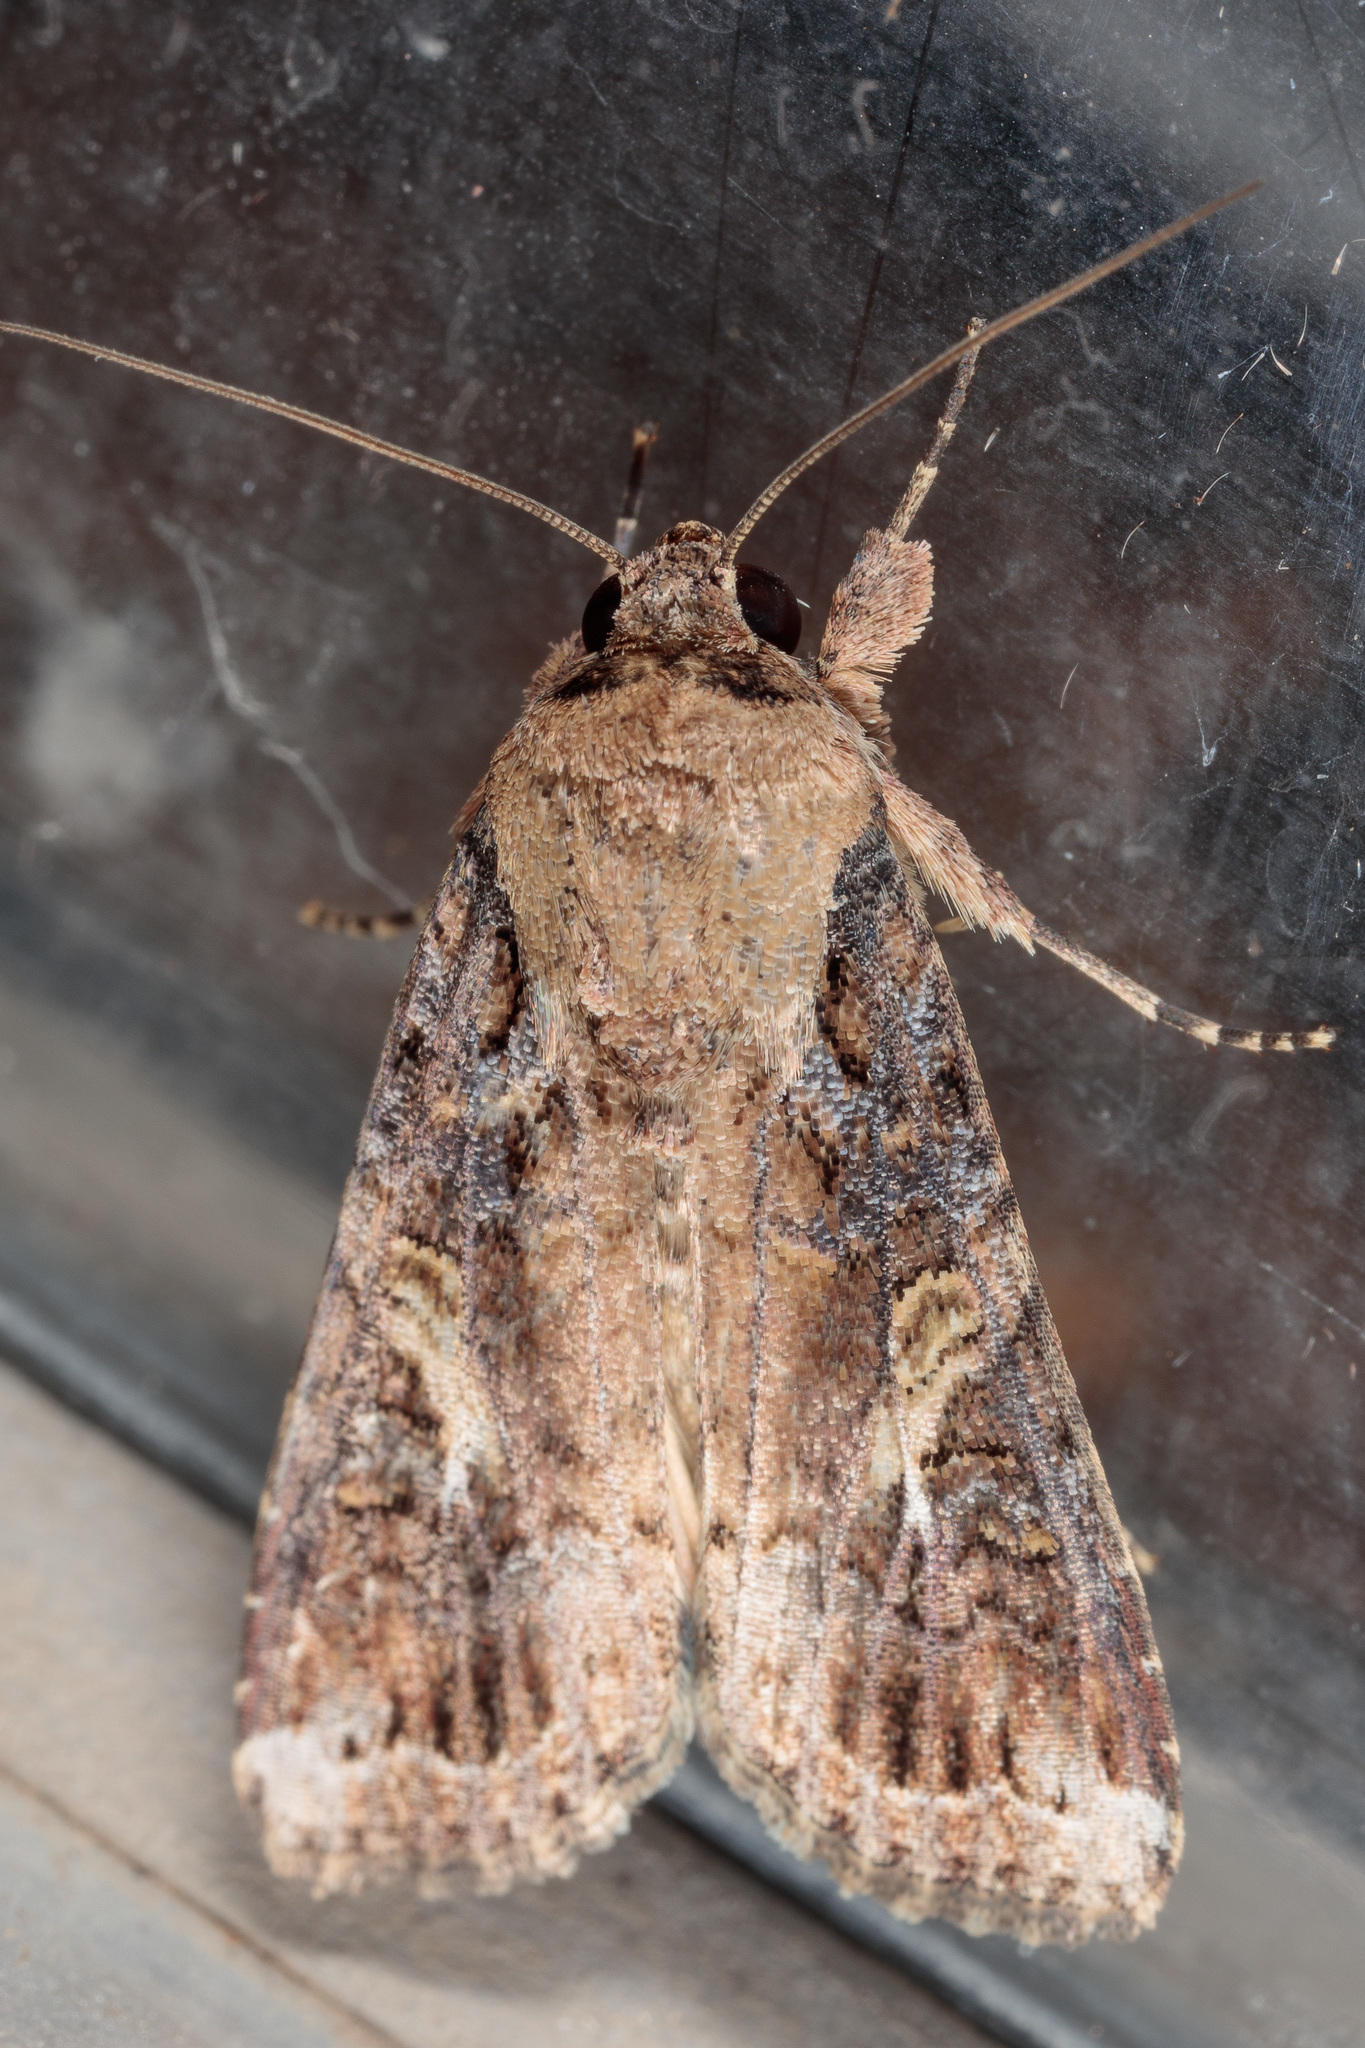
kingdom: Animalia
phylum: Arthropoda
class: Insecta
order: Lepidoptera
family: Noctuidae
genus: Spodoptera
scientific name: Spodoptera frugiperda
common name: Fall armyworm
